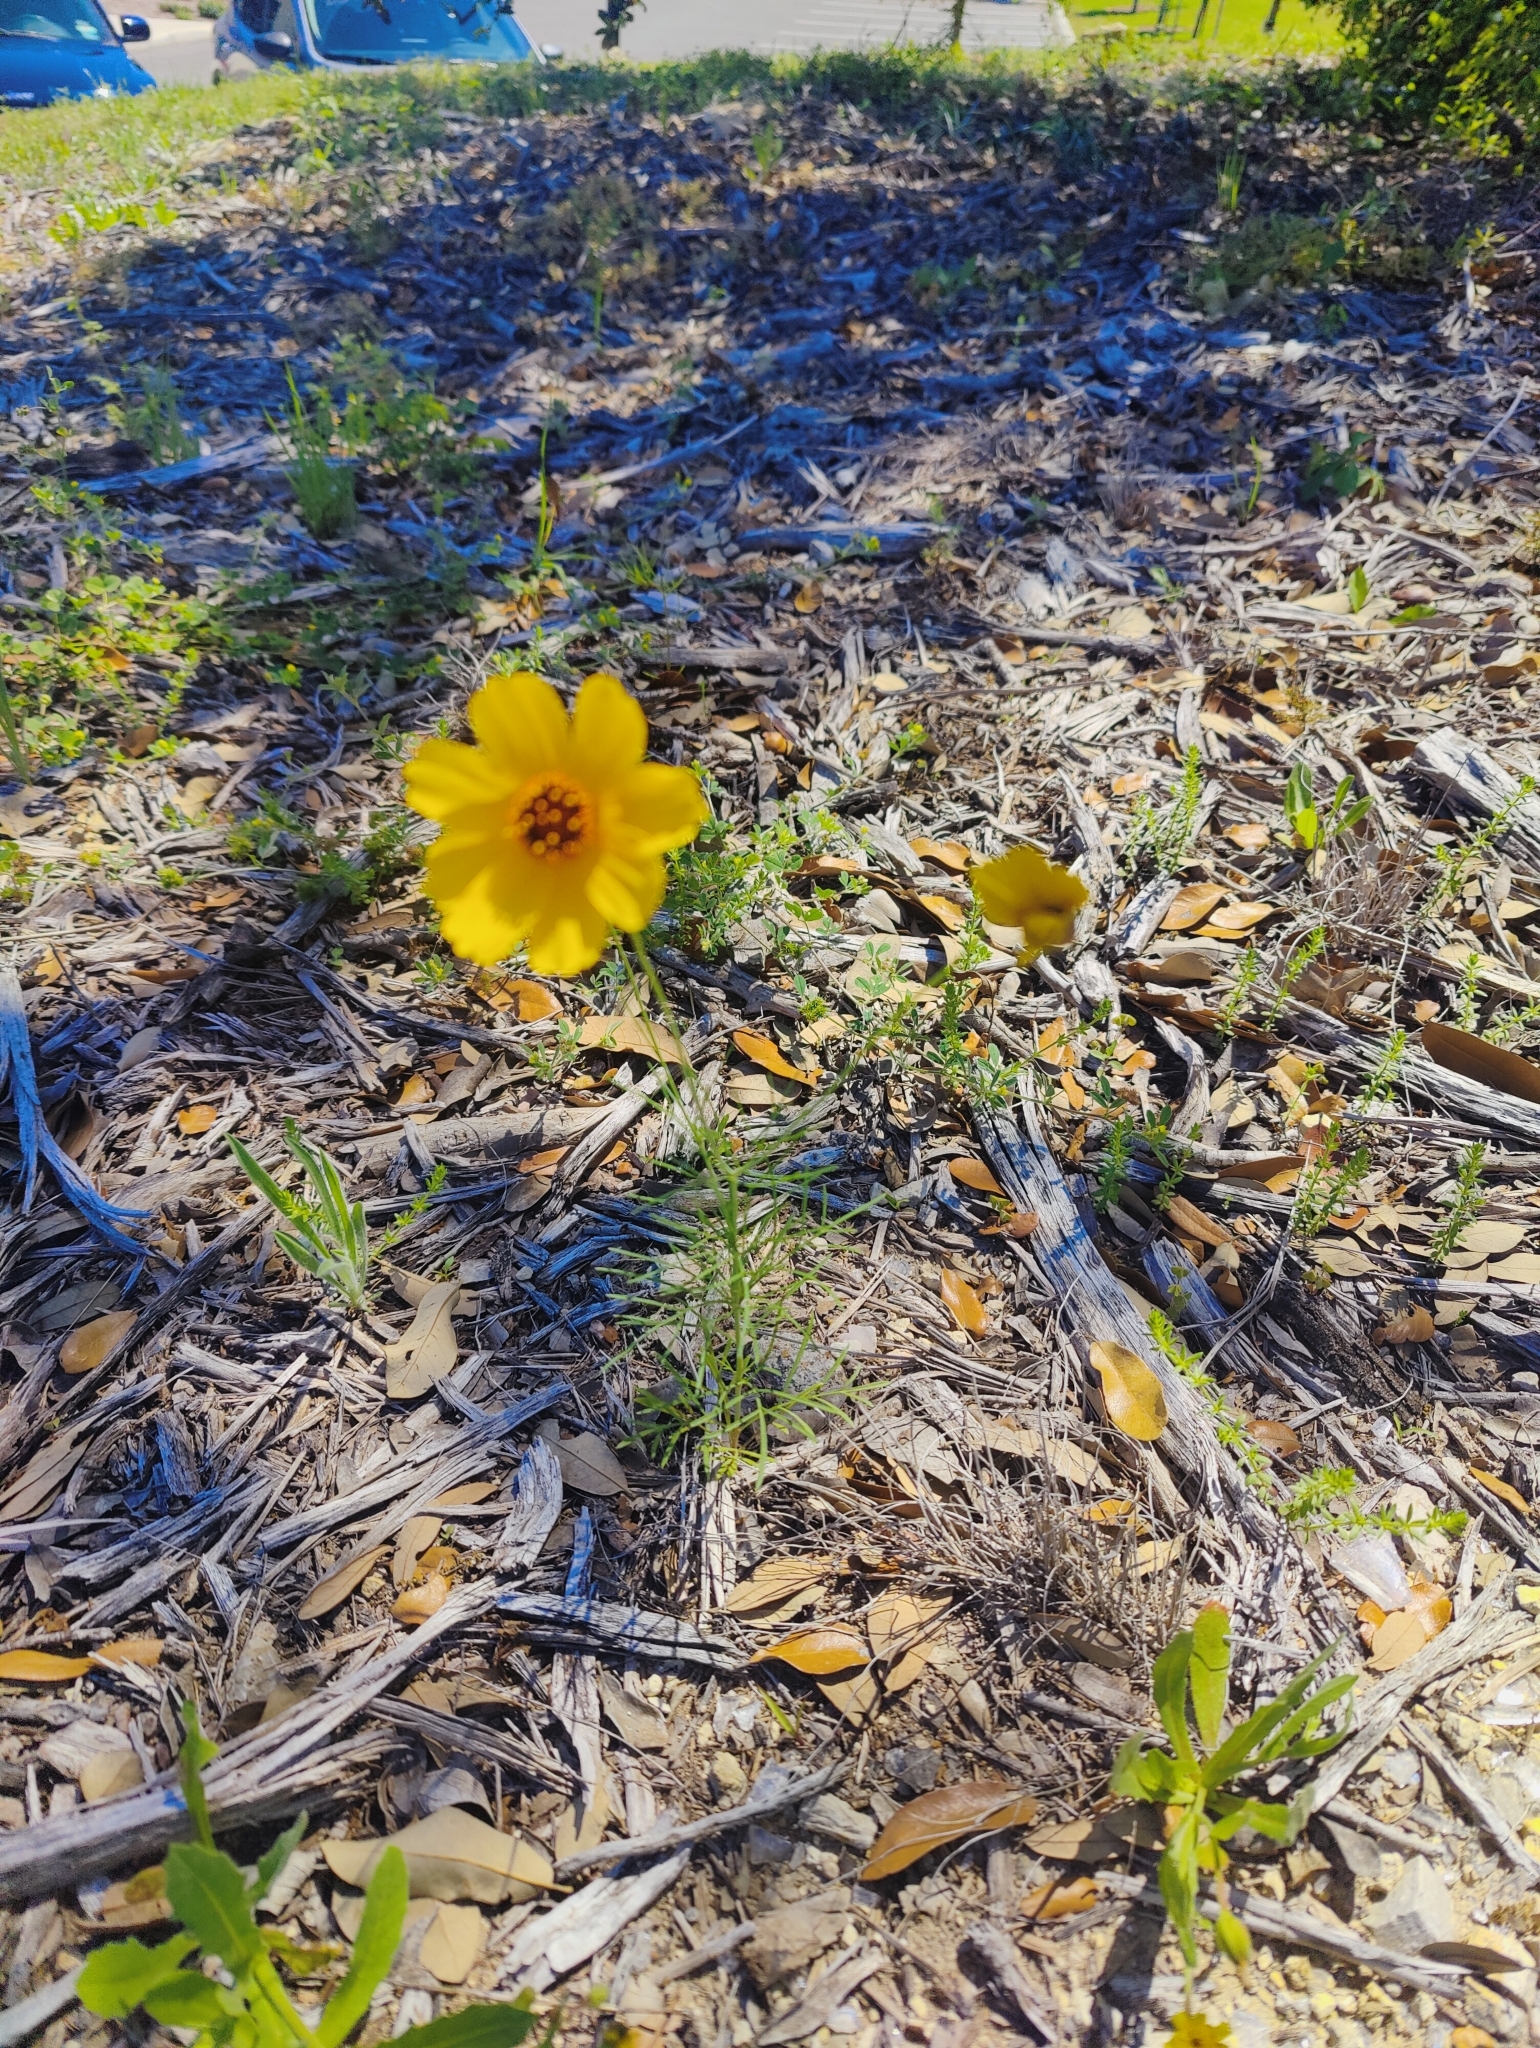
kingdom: Plantae
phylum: Tracheophyta
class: Magnoliopsida
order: Asterales
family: Asteraceae
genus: Thelesperma
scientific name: Thelesperma filifolium
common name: Stiff greenthread
